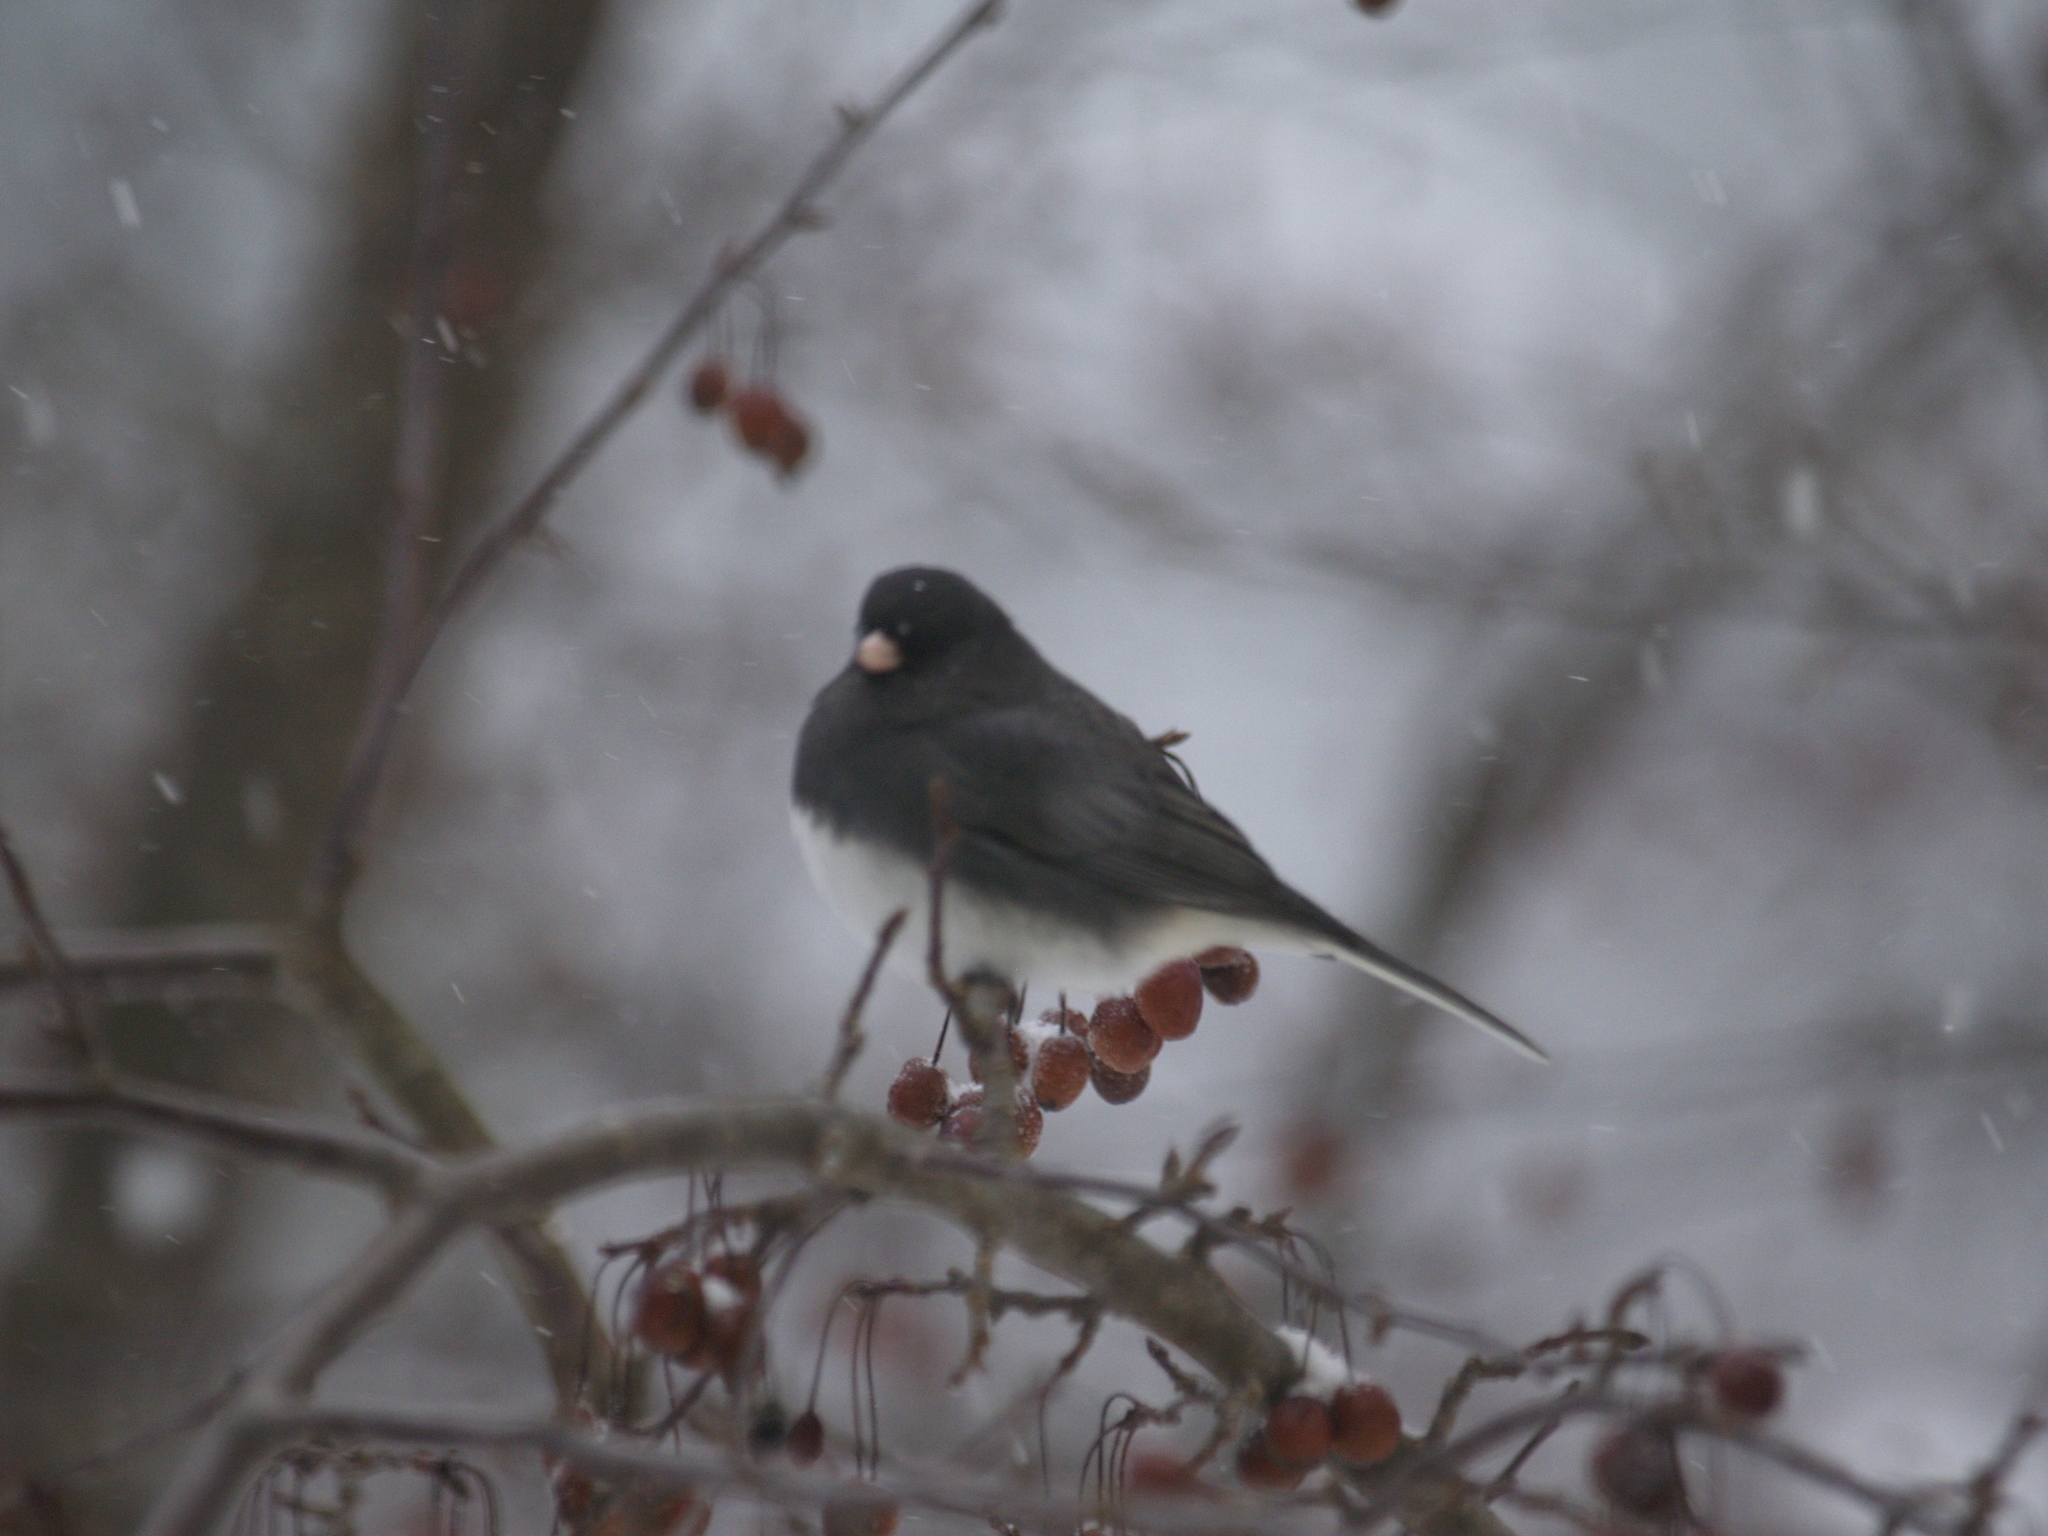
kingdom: Animalia
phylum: Chordata
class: Aves
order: Passeriformes
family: Passerellidae
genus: Junco
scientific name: Junco hyemalis
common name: Dark-eyed junco
